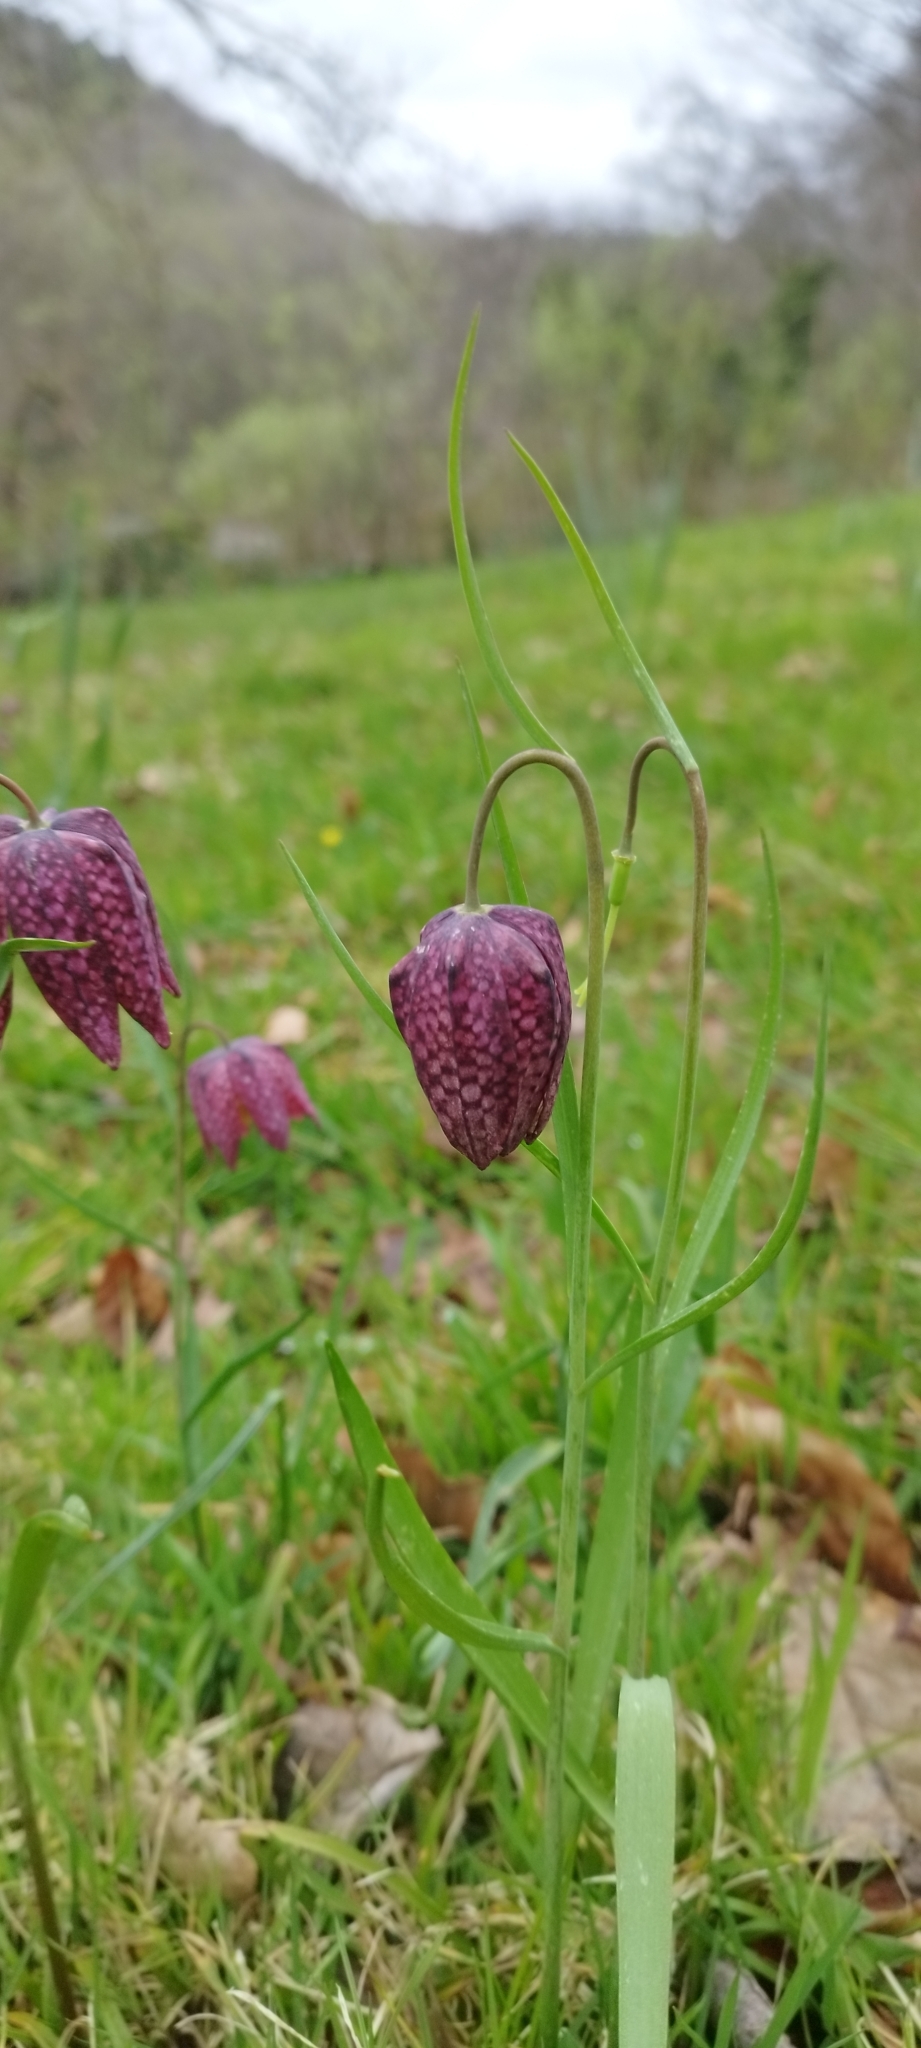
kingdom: Plantae
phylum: Tracheophyta
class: Liliopsida
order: Liliales
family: Liliaceae
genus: Fritillaria
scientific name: Fritillaria meleagris
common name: Fritillary
